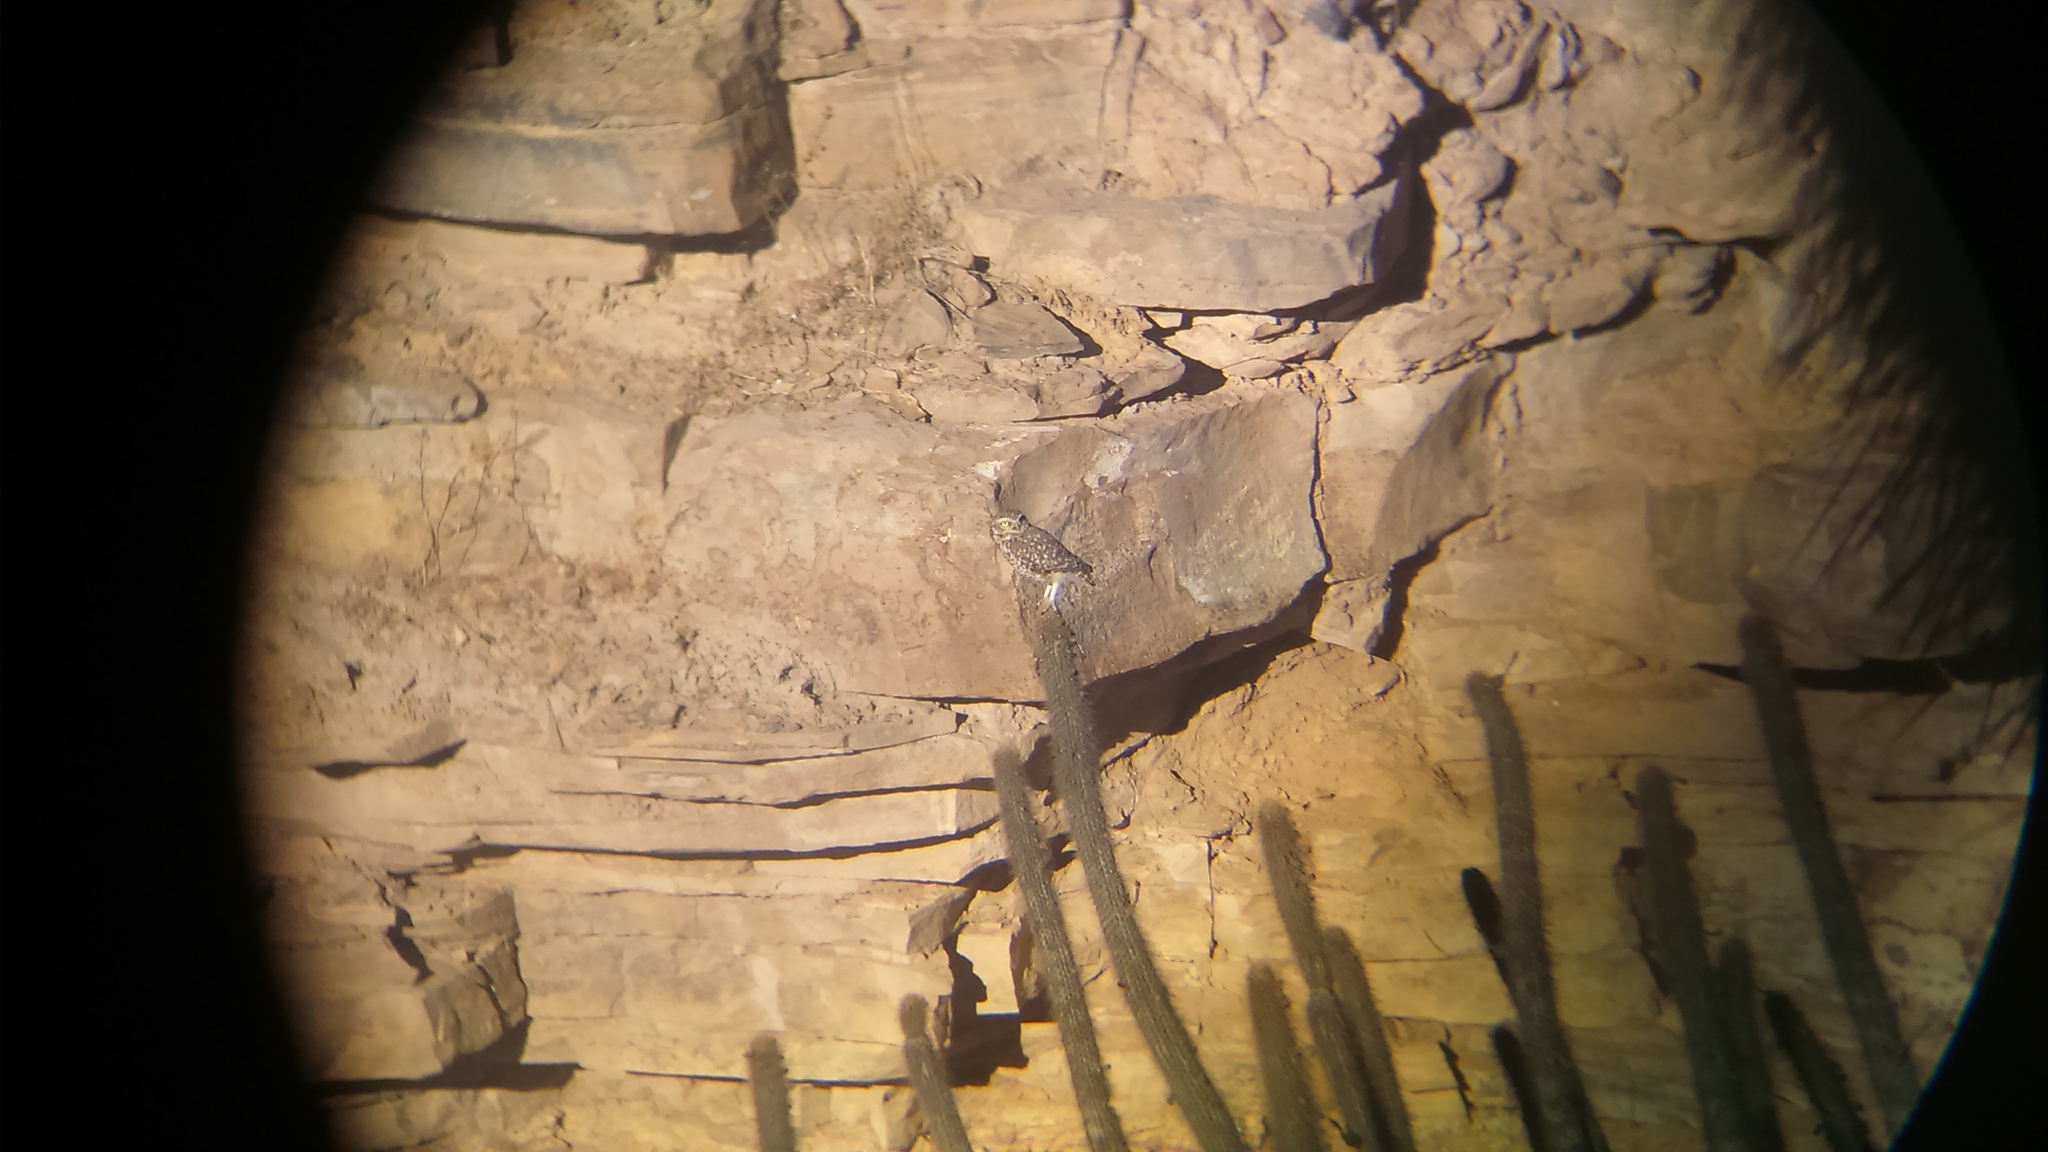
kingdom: Animalia
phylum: Chordata
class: Aves
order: Strigiformes
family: Strigidae
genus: Athene
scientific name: Athene cunicularia
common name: Burrowing owl
